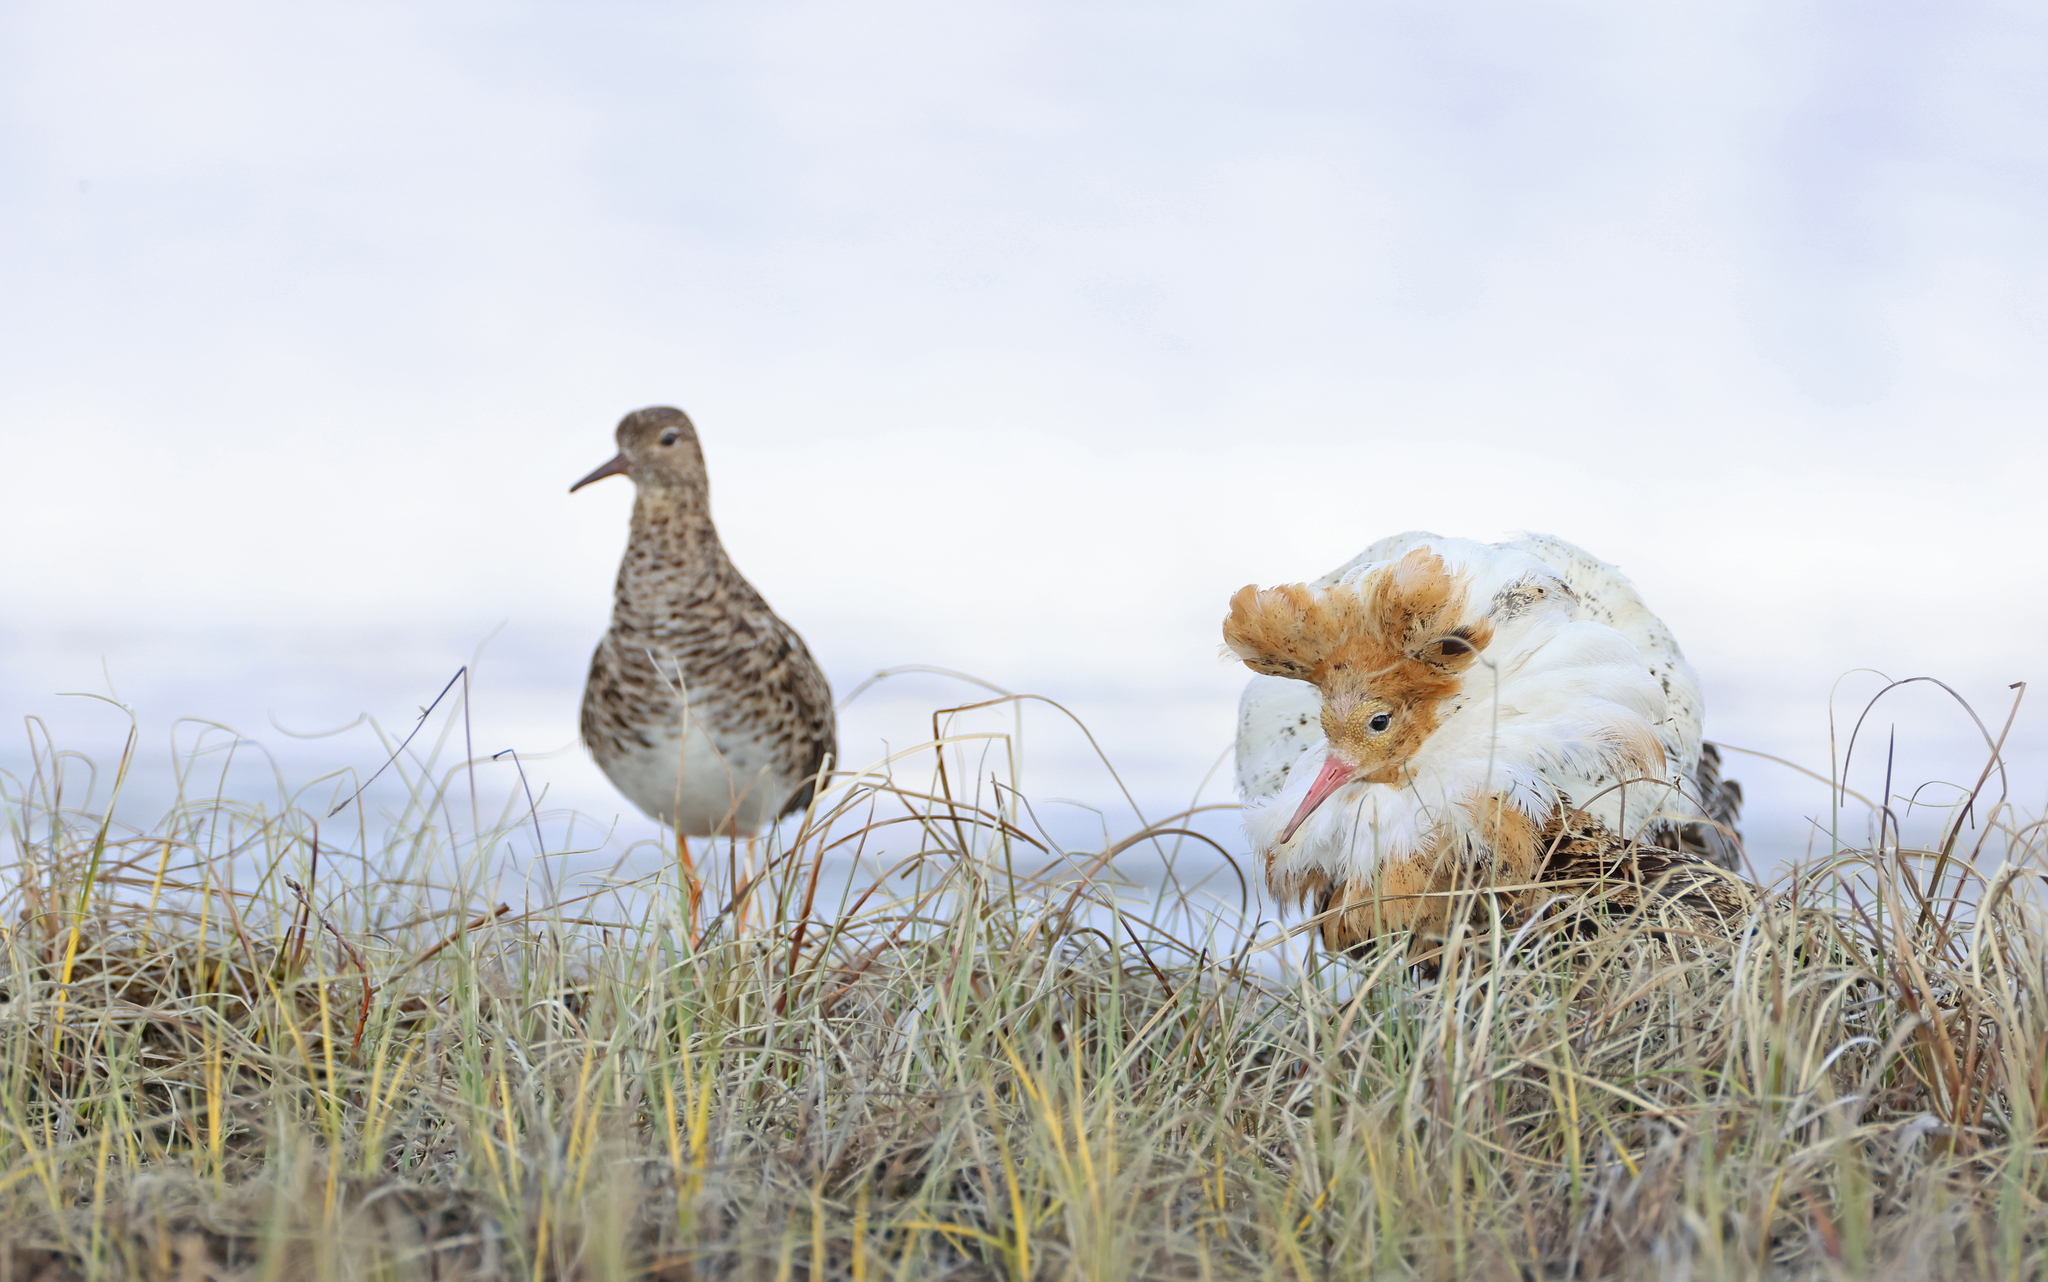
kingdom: Animalia
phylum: Chordata
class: Aves
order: Charadriiformes
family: Scolopacidae
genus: Calidris
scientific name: Calidris pugnax
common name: Ruff
